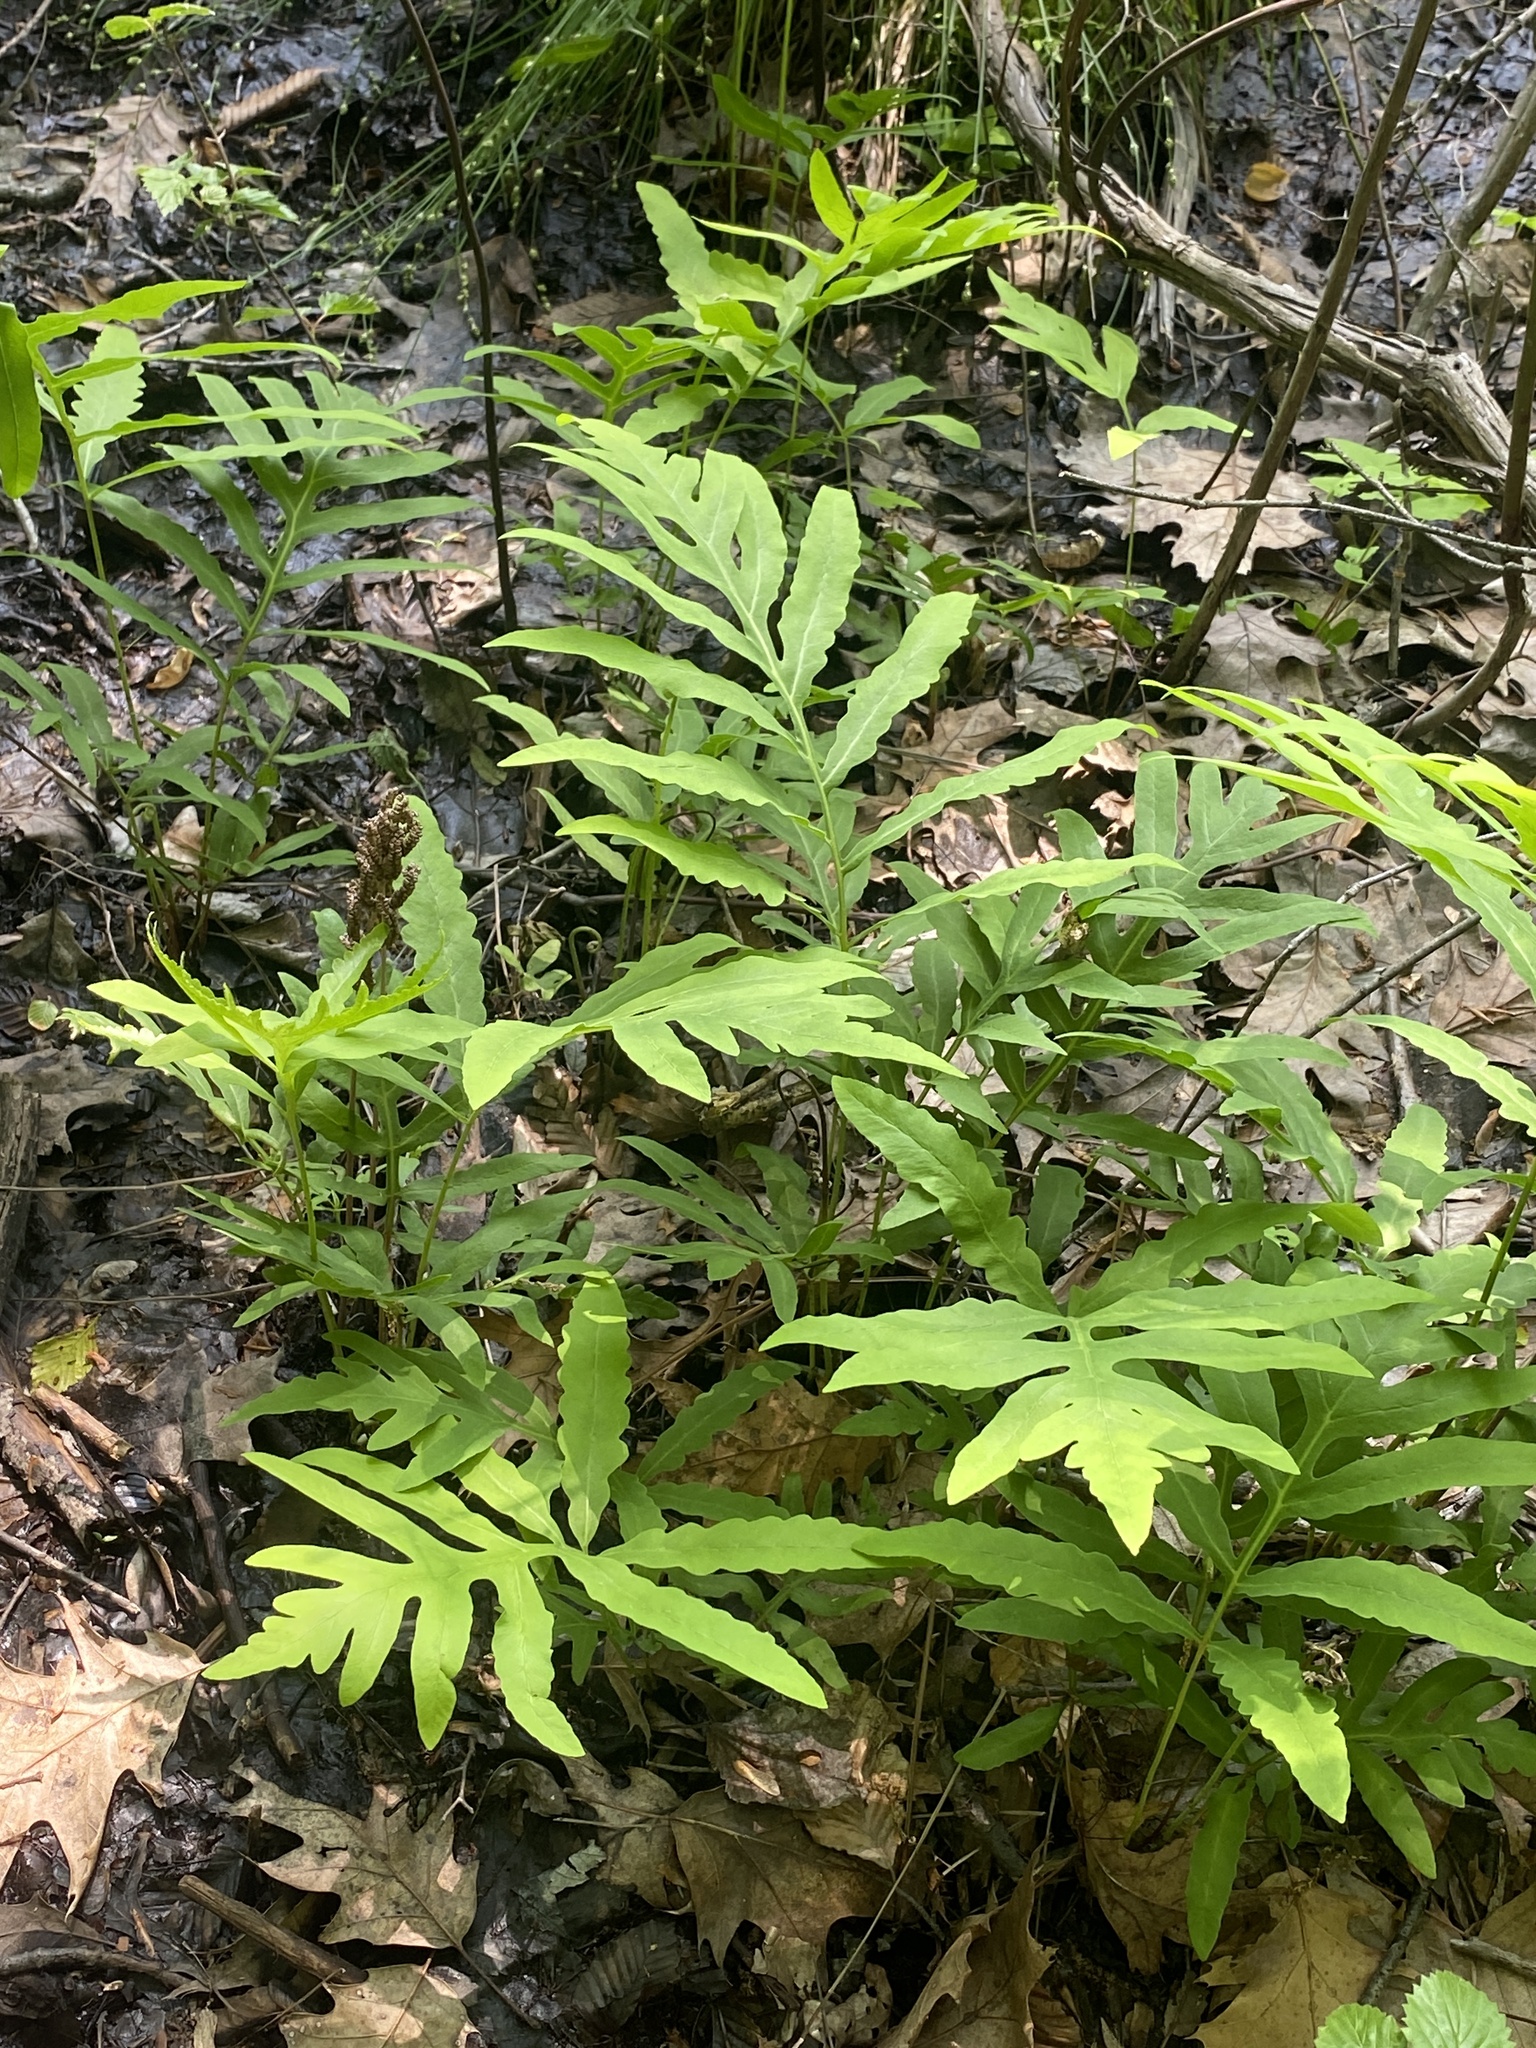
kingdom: Plantae
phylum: Tracheophyta
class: Polypodiopsida
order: Polypodiales
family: Onocleaceae
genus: Onoclea
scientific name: Onoclea sensibilis
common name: Sensitive fern
